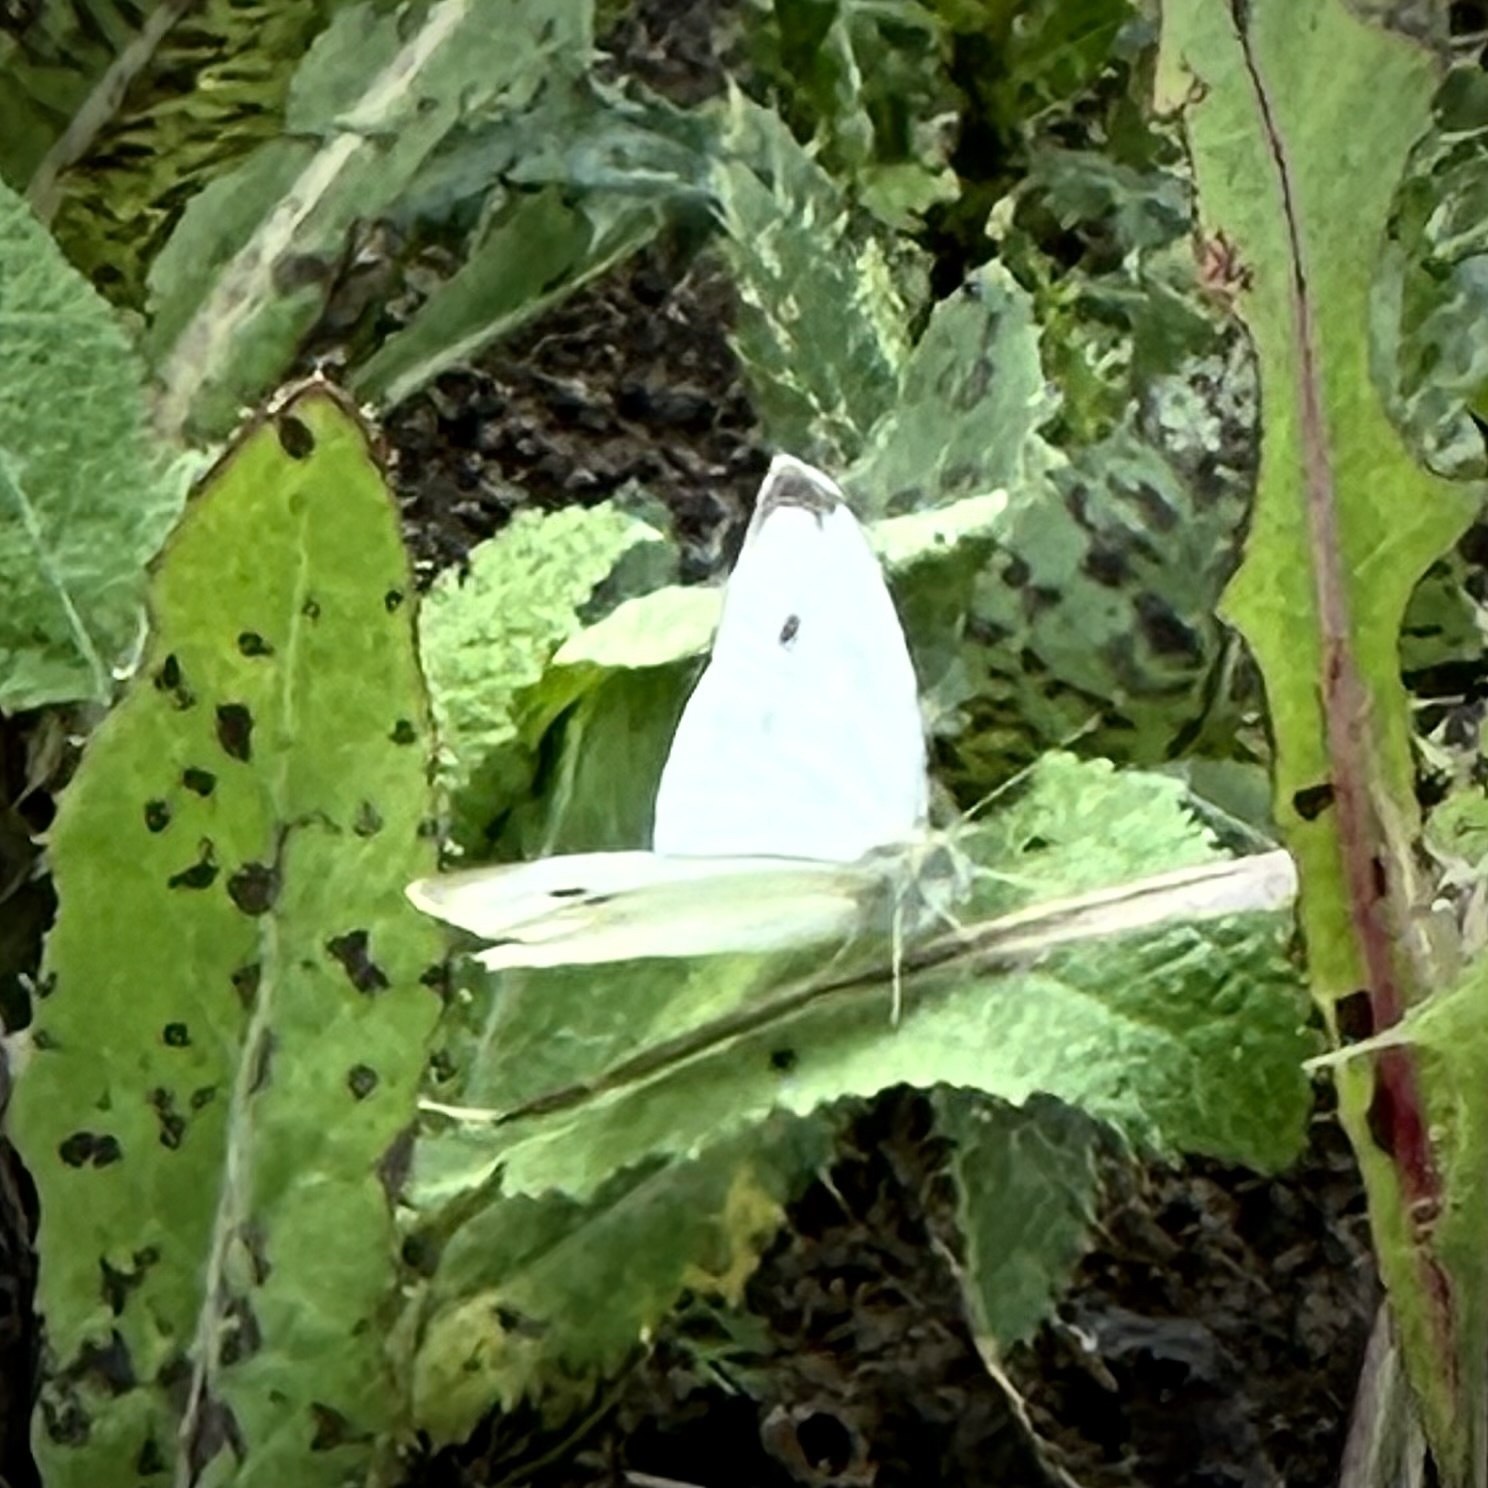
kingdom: Animalia
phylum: Arthropoda
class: Insecta
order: Lepidoptera
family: Pieridae
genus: Pieris
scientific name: Pieris rapae
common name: Small white
